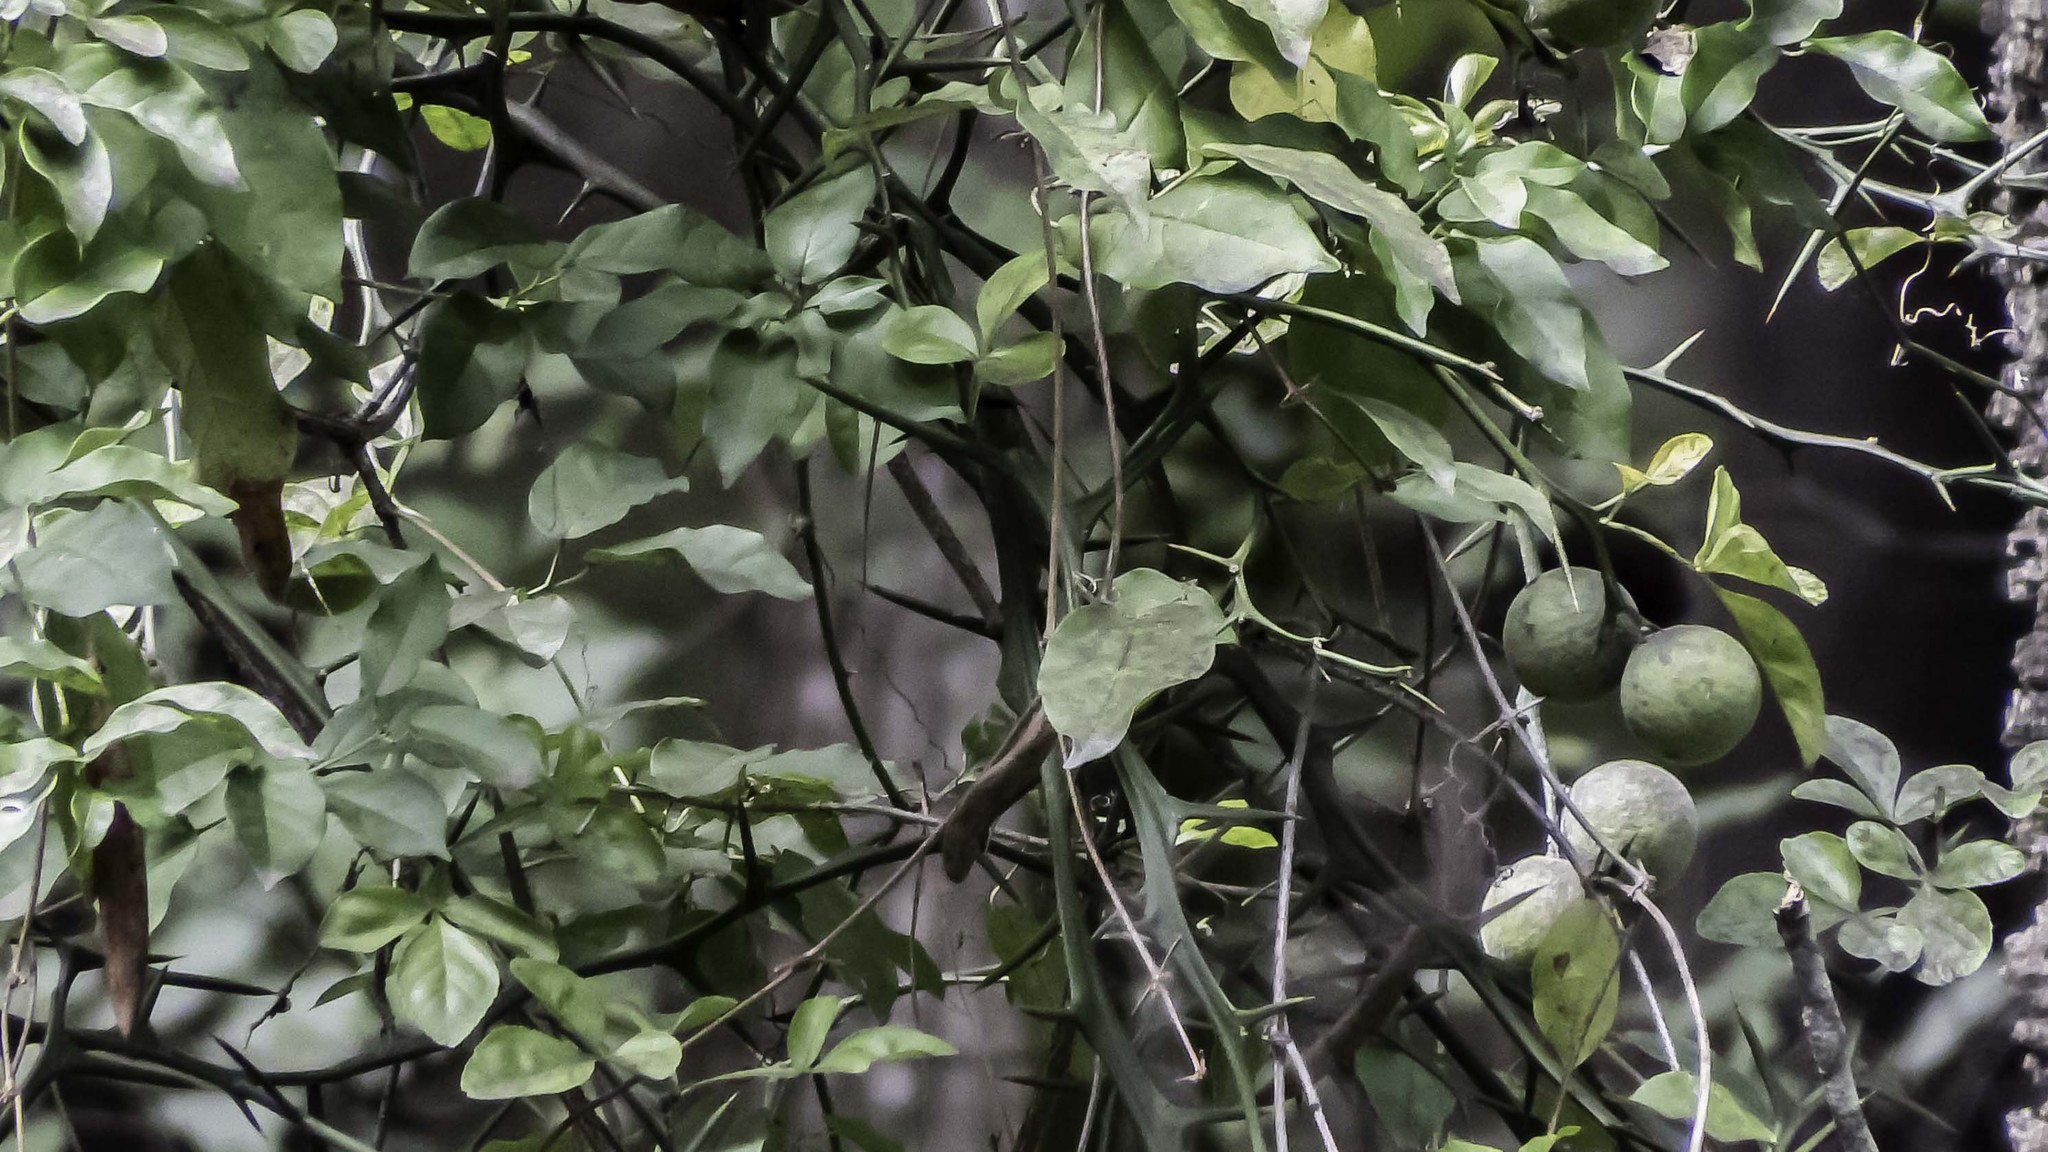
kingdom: Plantae
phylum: Tracheophyta
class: Magnoliopsida
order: Sapindales
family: Rutaceae
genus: Citrus
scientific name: Citrus trifoliata
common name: Japanese bitter-orange
